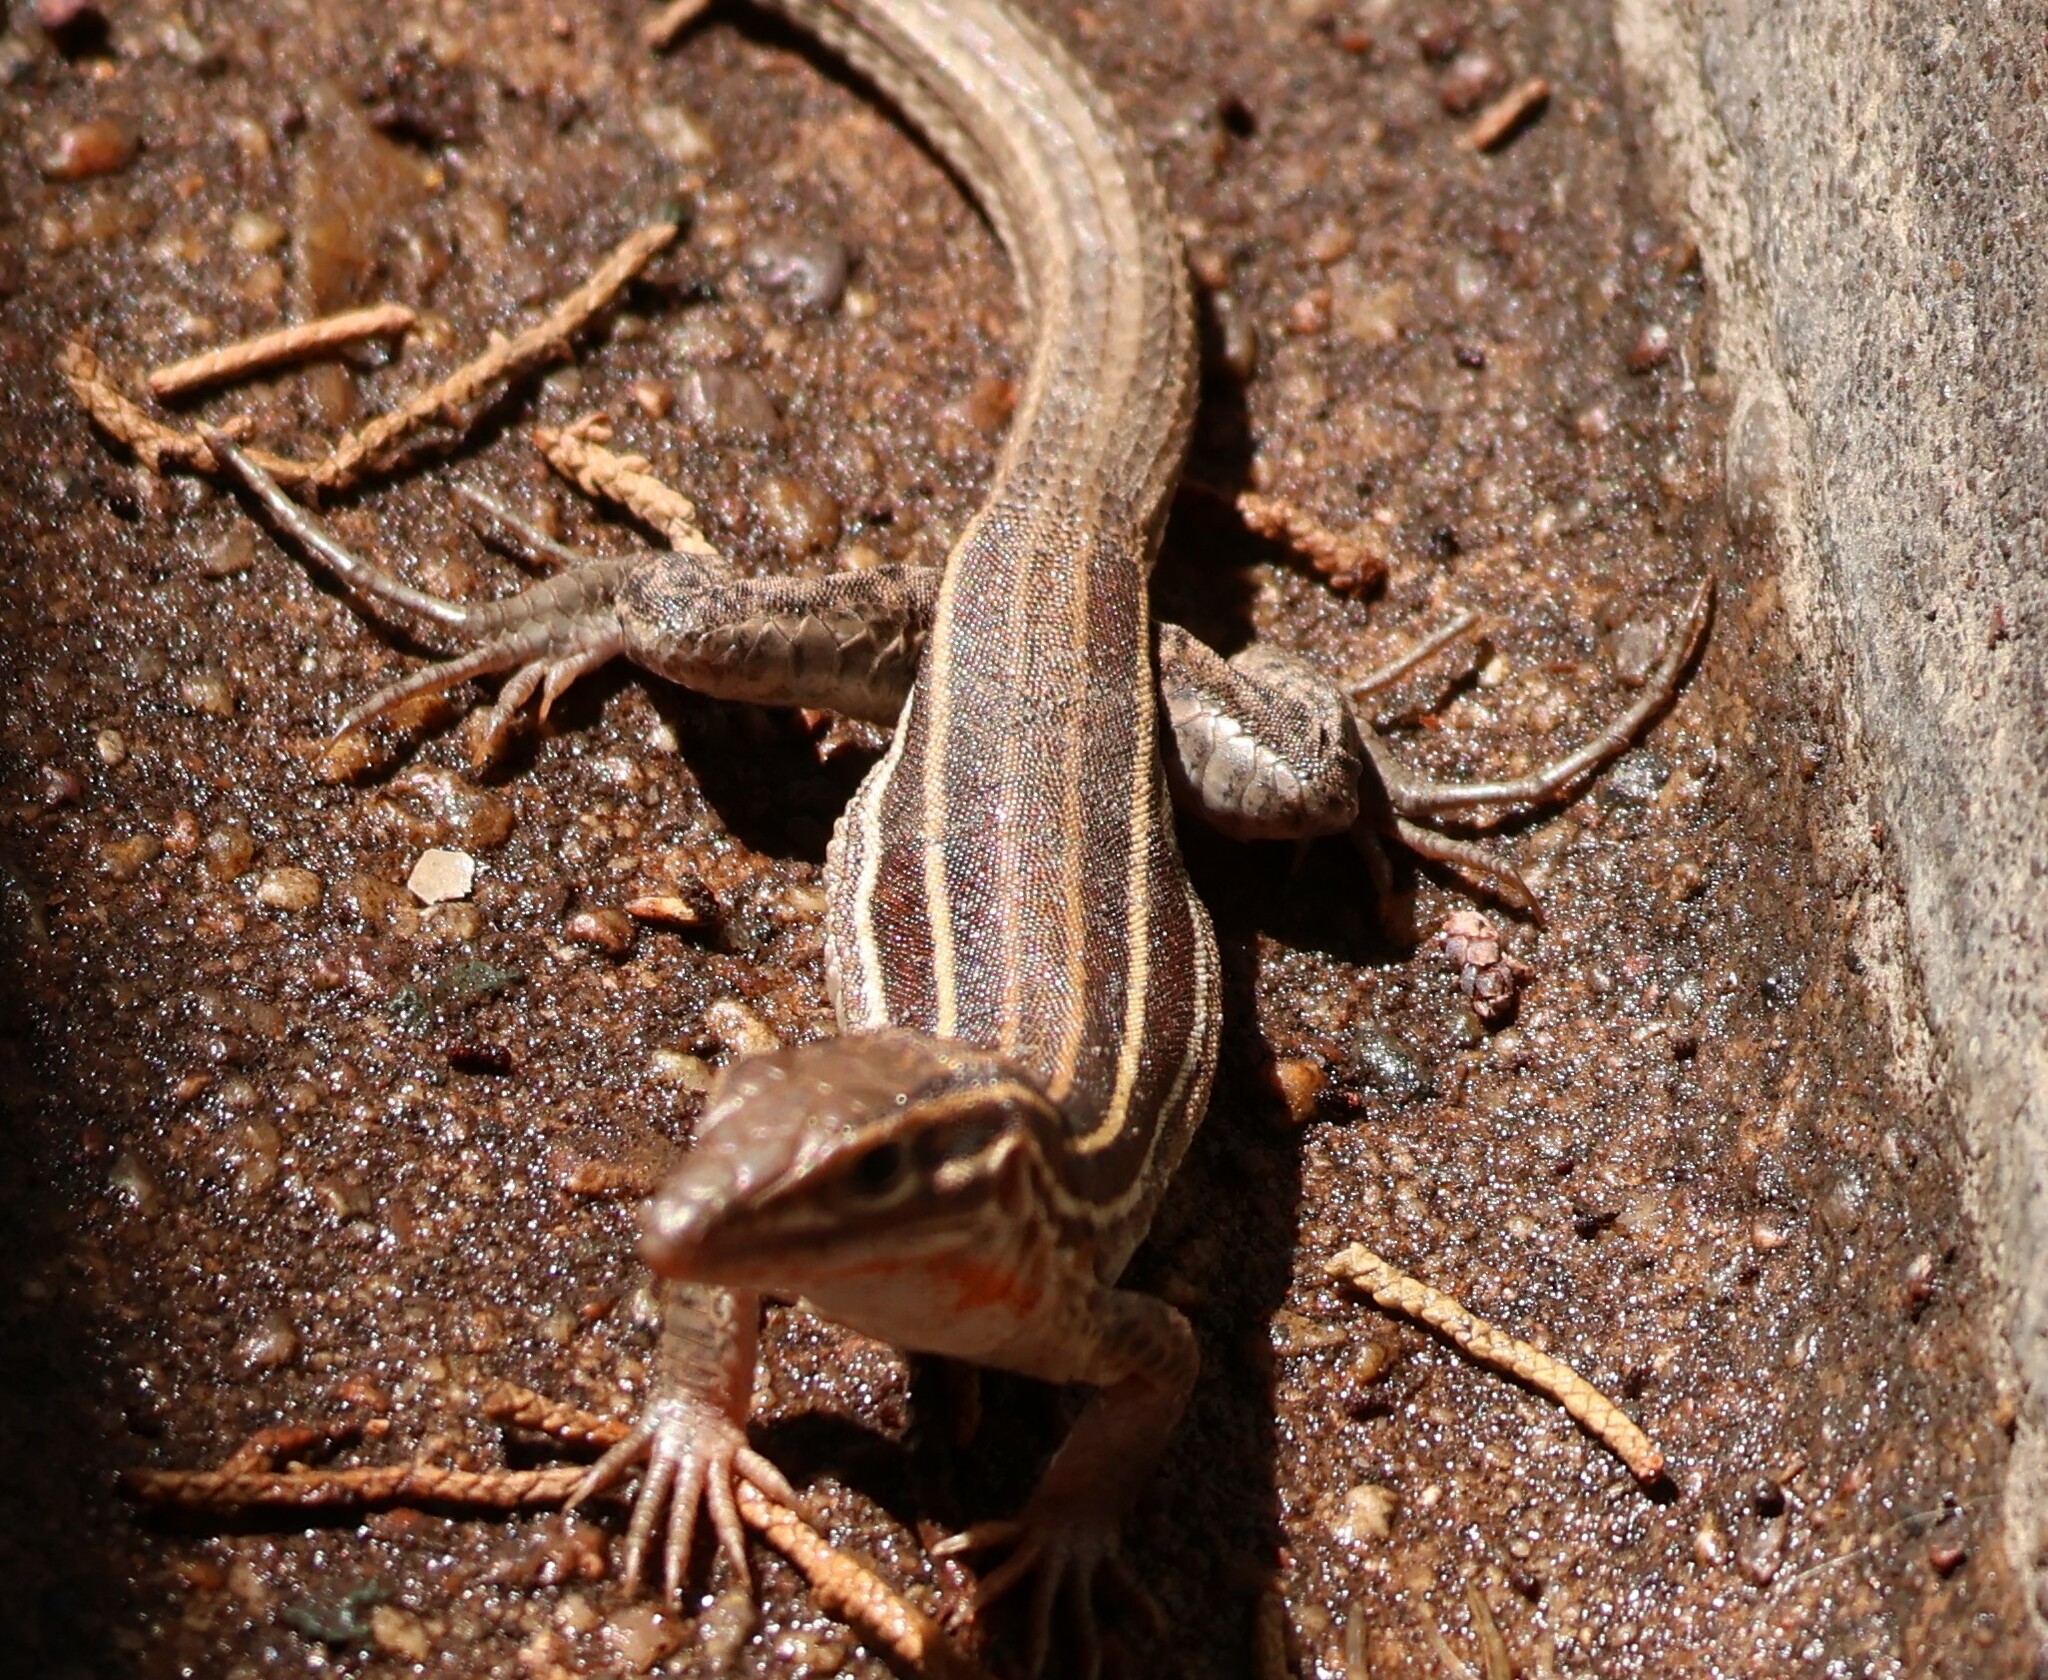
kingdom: Animalia
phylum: Chordata
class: Squamata
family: Teiidae
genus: Aspidoscelis
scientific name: Aspidoscelis hyperythrus
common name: Orange-throated race-runner
